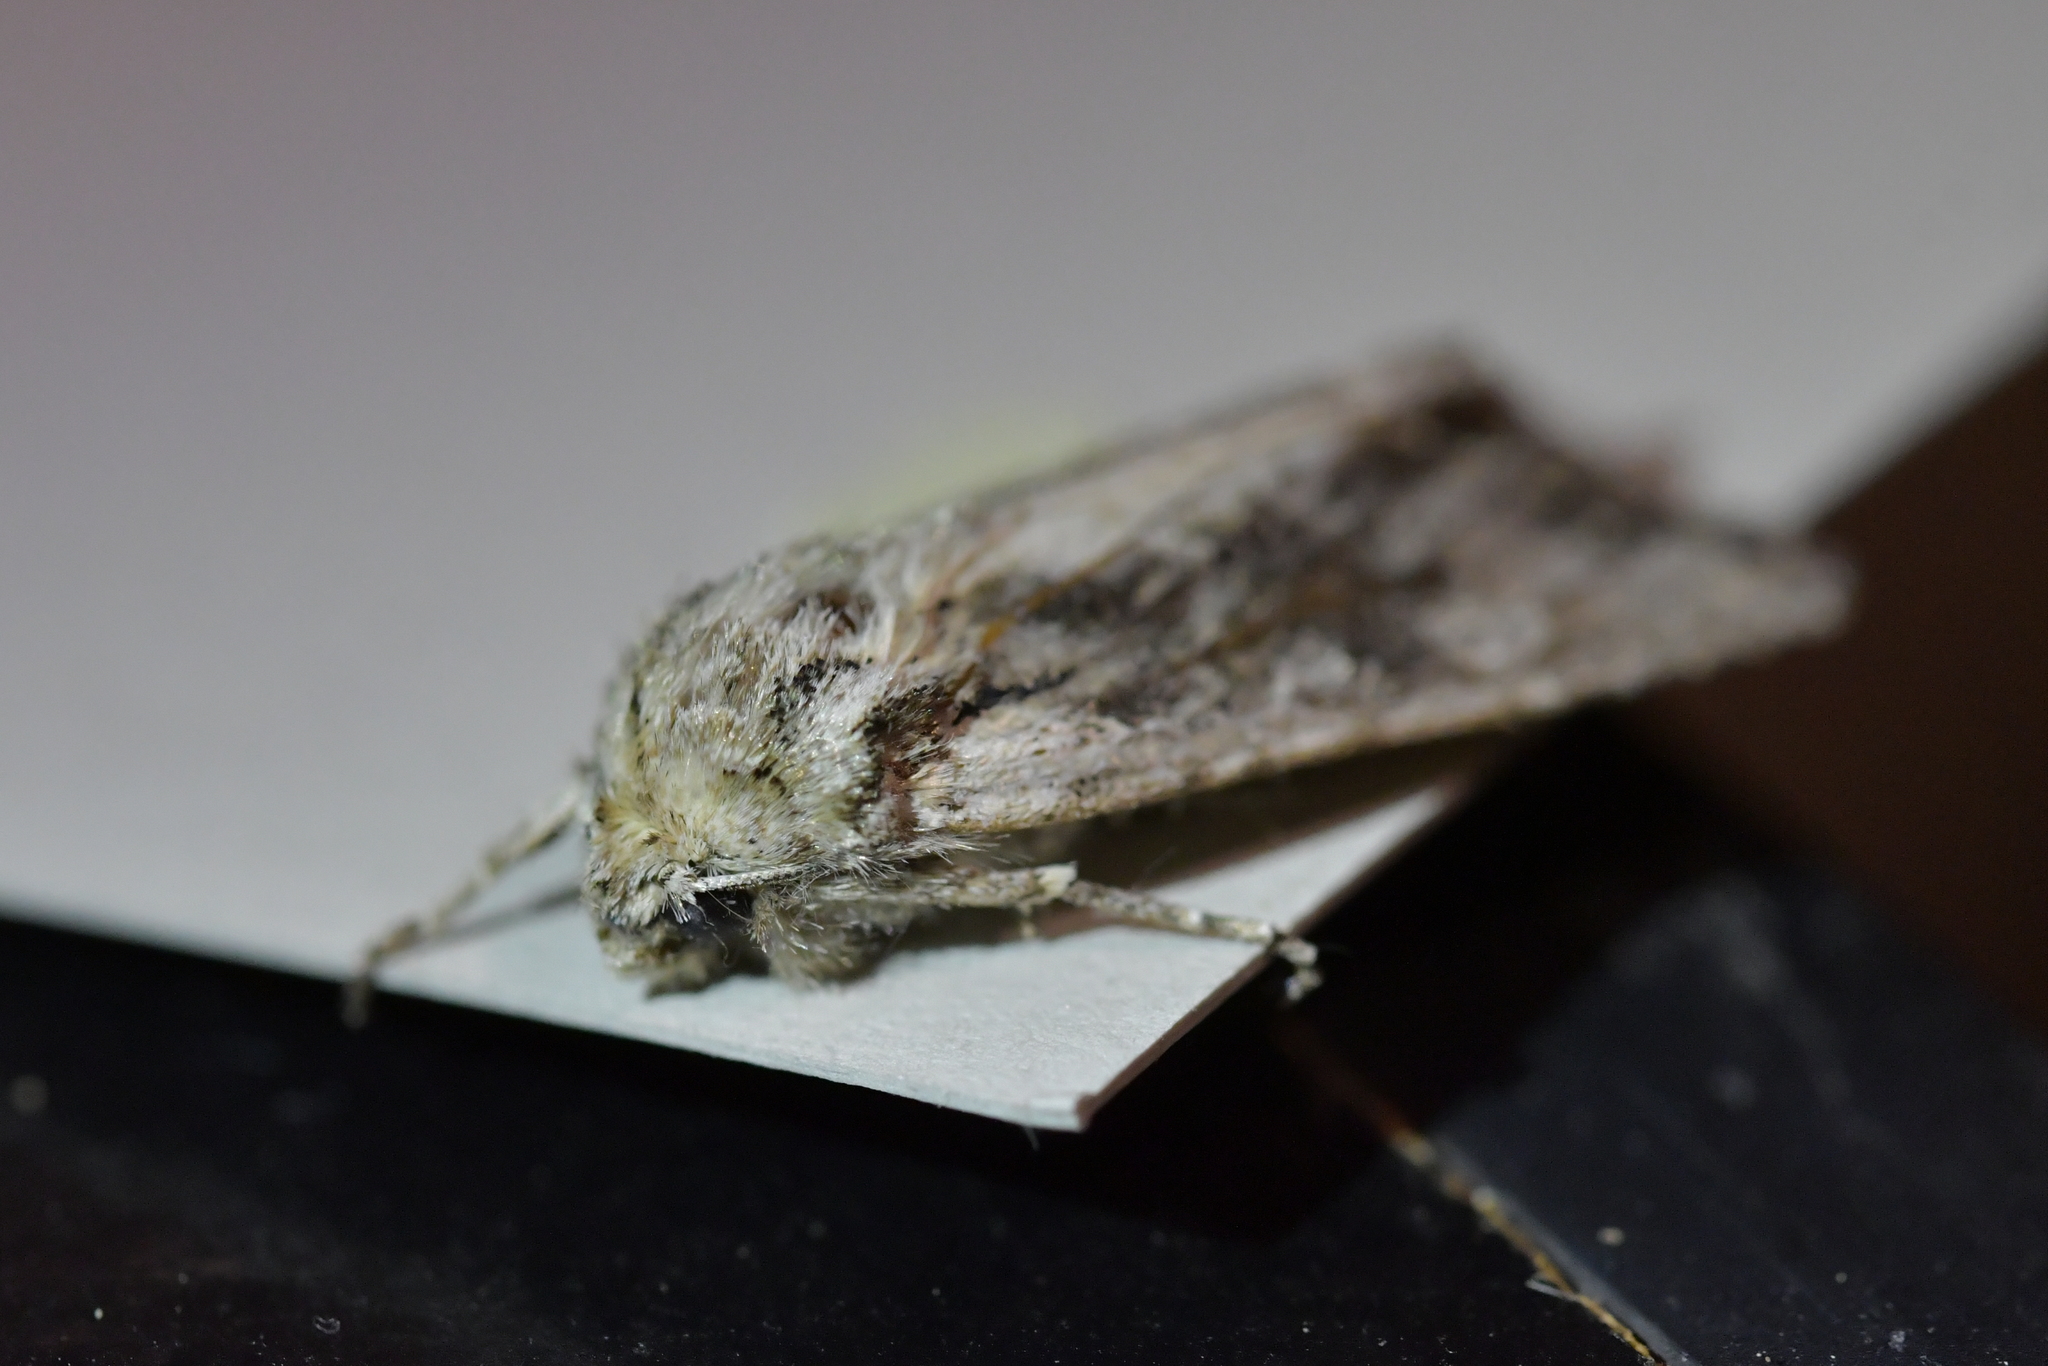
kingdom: Animalia
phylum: Arthropoda
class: Insecta
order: Lepidoptera
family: Noctuidae
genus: Ichneutica
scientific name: Ichneutica mutans
